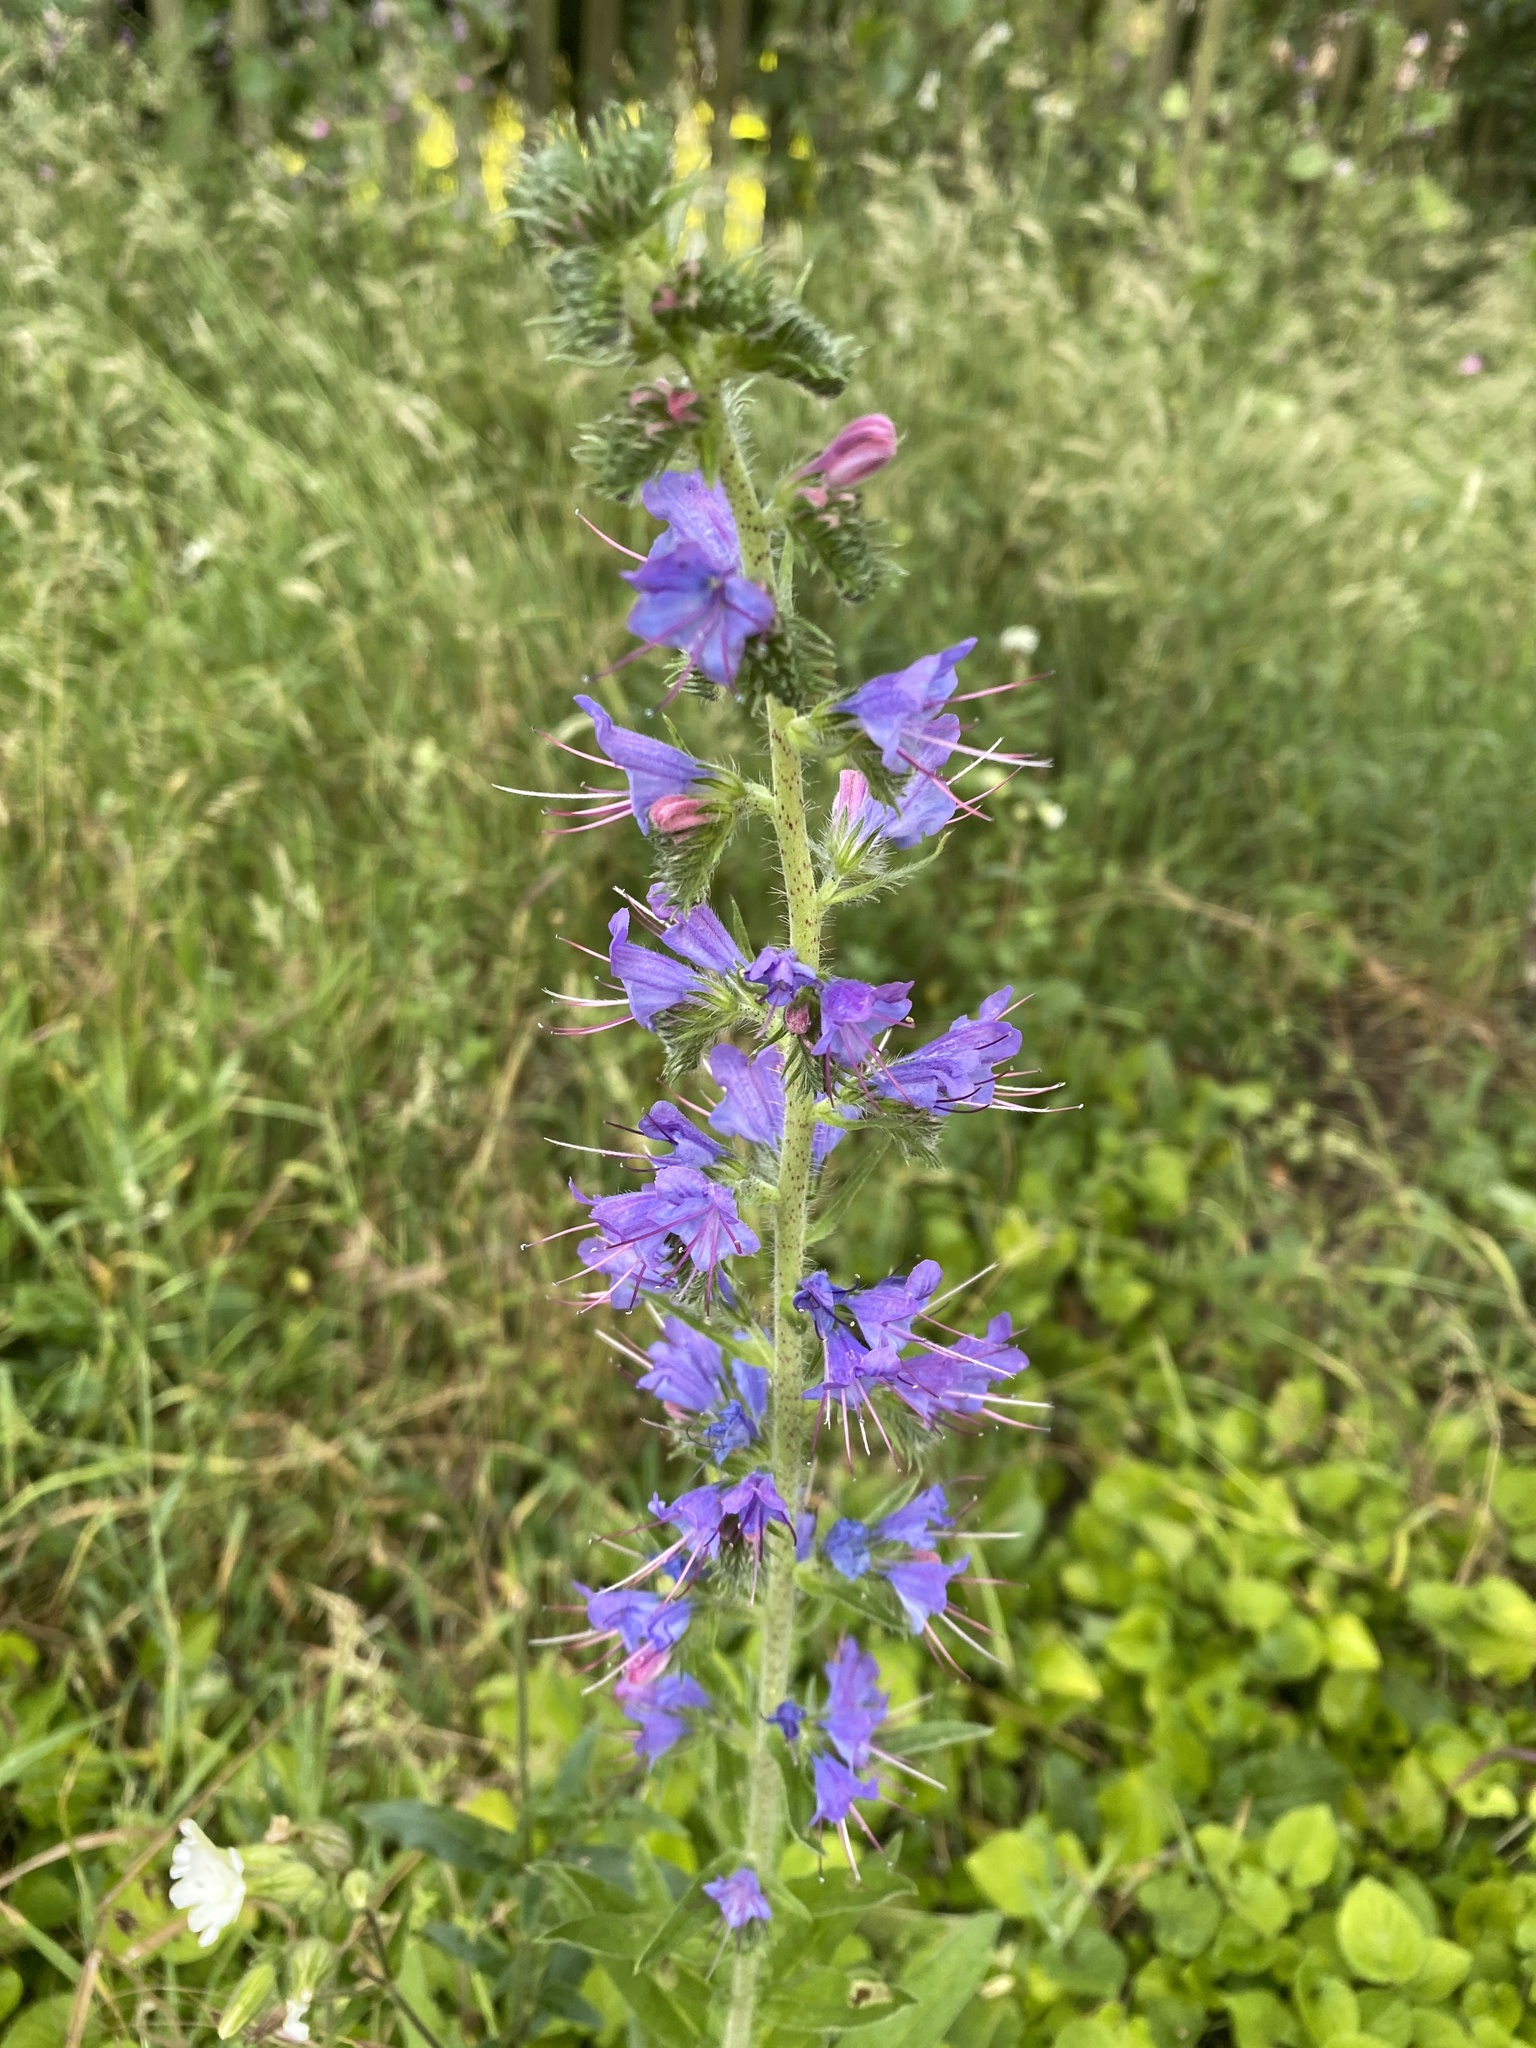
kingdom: Plantae
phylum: Tracheophyta
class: Magnoliopsida
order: Boraginales
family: Boraginaceae
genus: Echium
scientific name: Echium vulgare
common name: Common viper's bugloss
